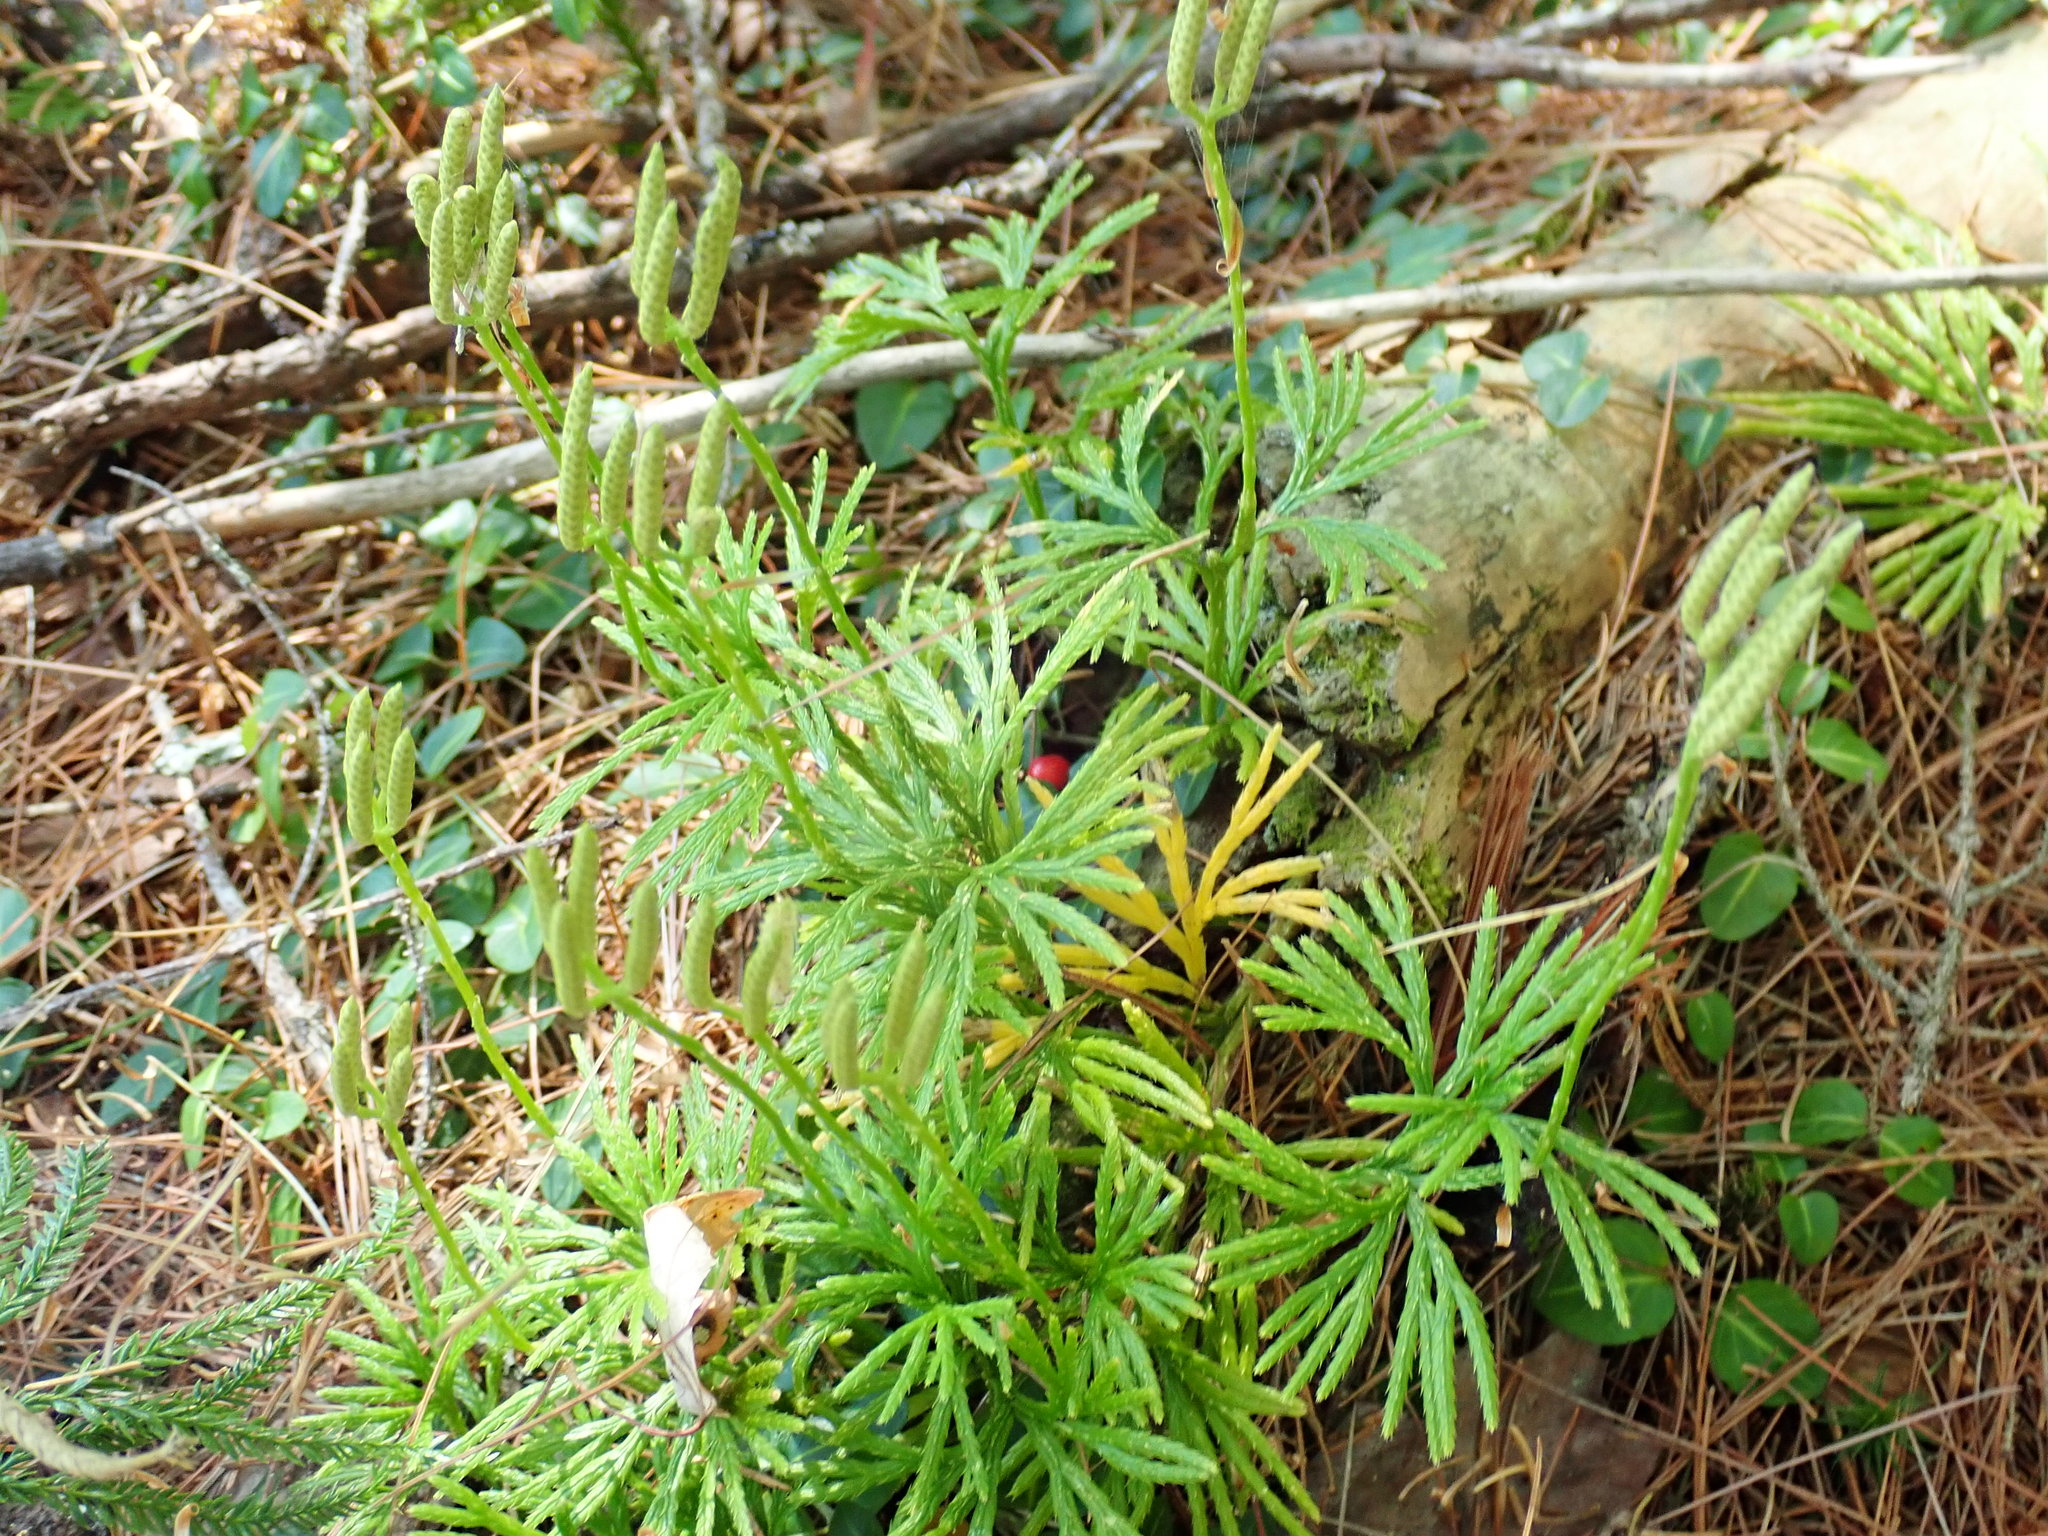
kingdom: Plantae
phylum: Tracheophyta
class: Lycopodiopsida
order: Lycopodiales
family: Lycopodiaceae
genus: Diphasiastrum
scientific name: Diphasiastrum digitatum
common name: Southern running-pine
